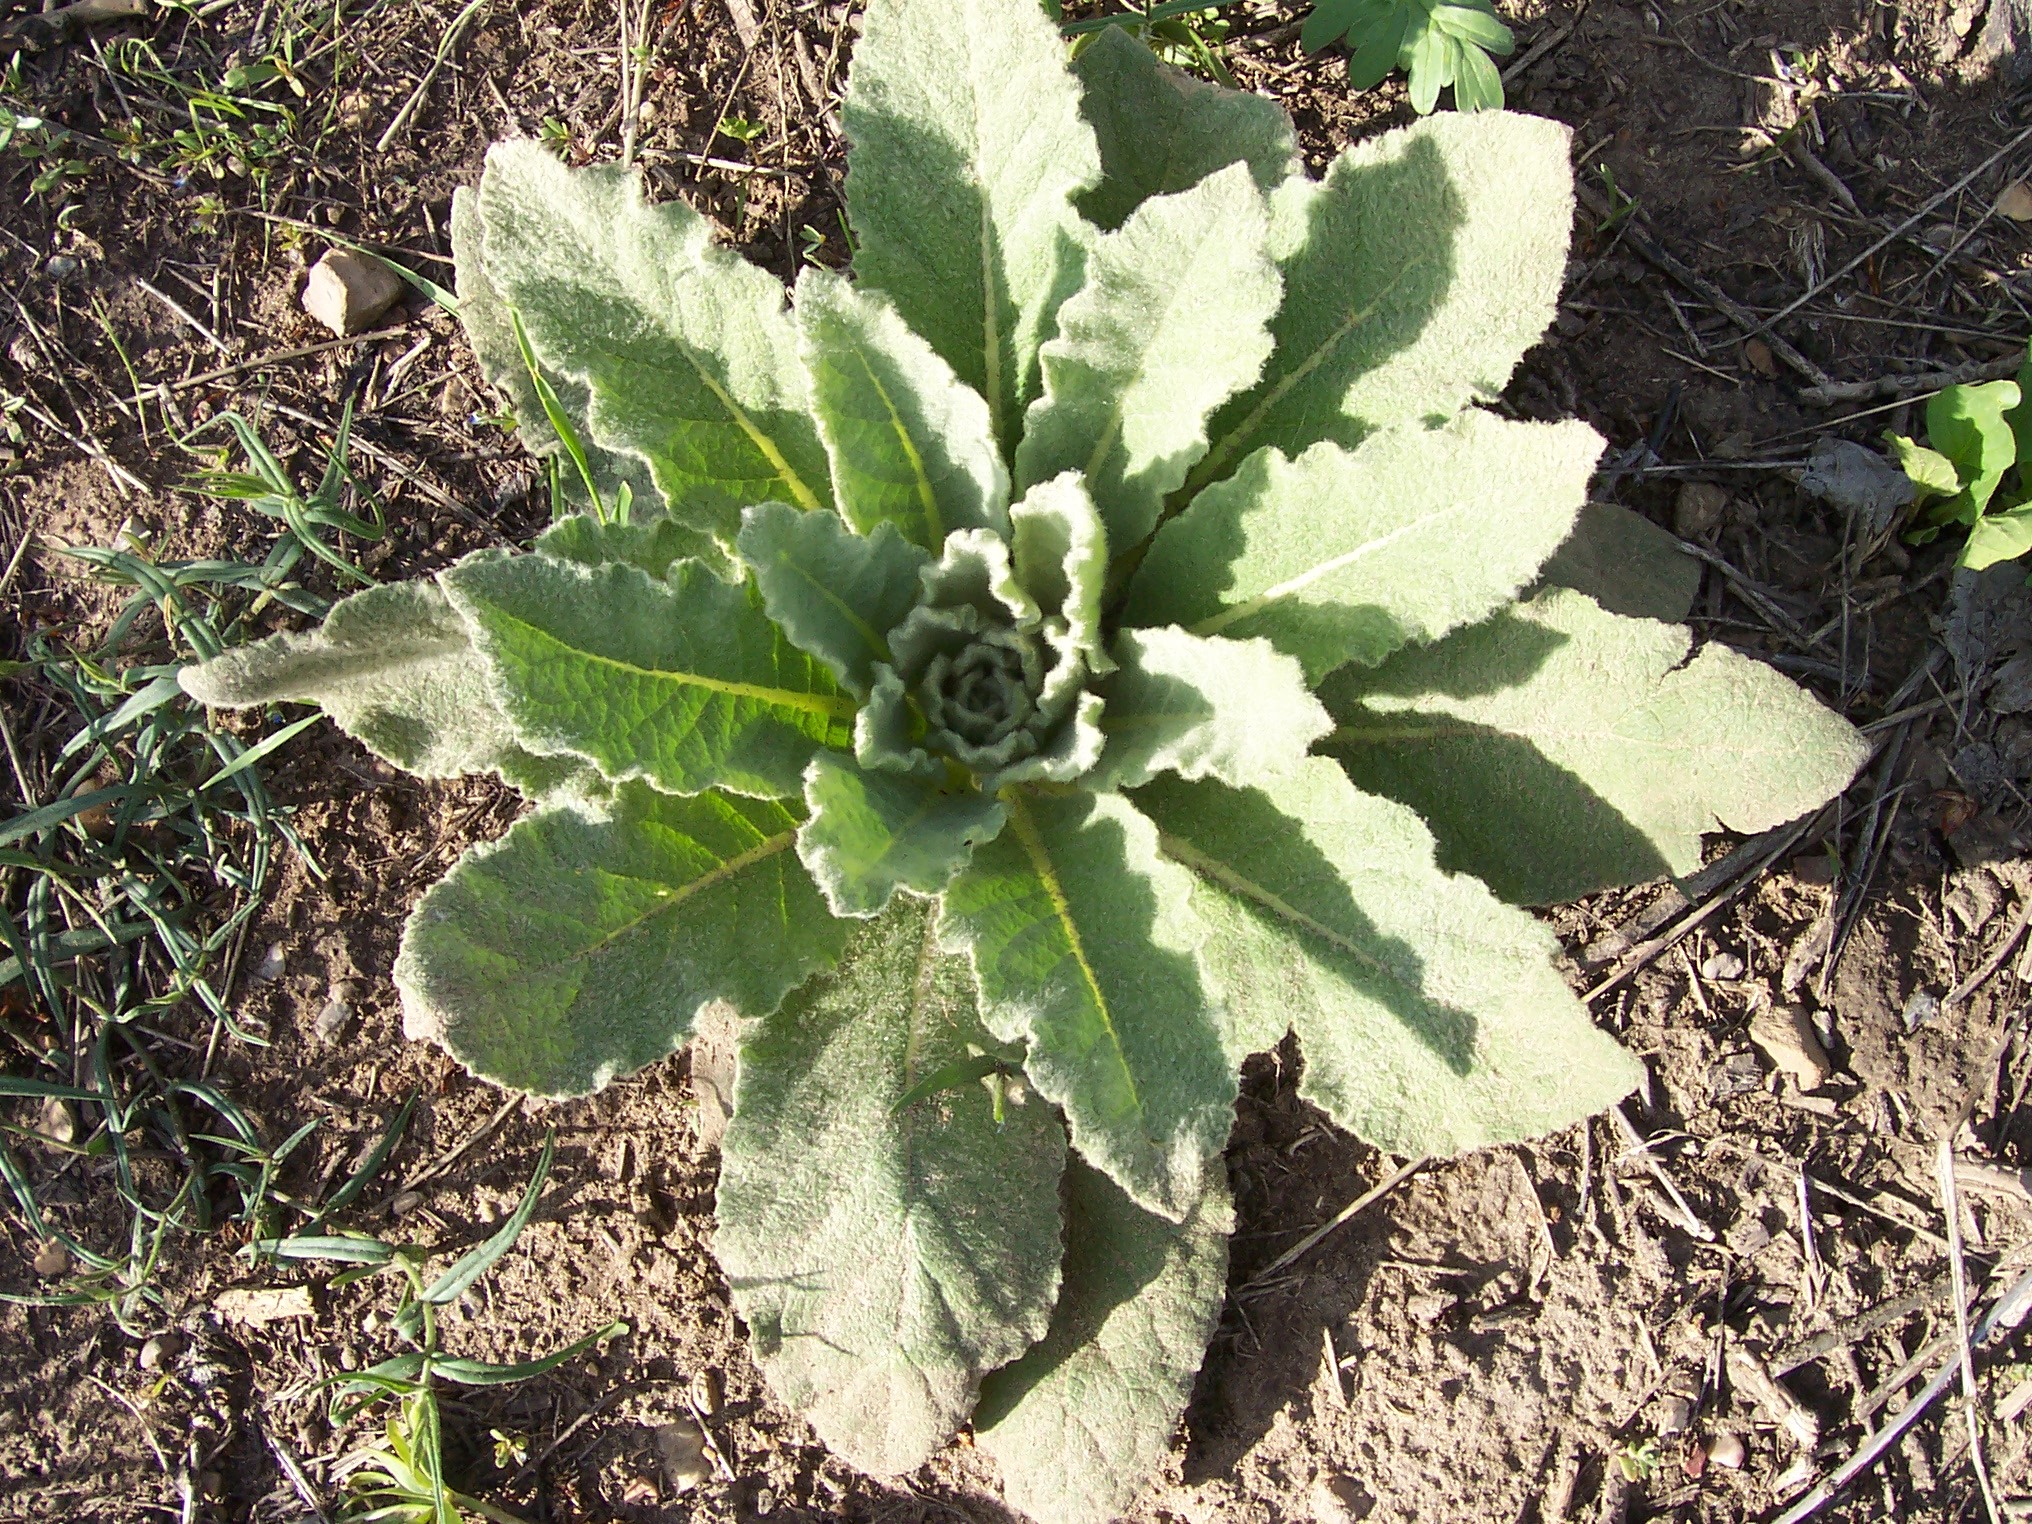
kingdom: Plantae
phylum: Tracheophyta
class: Magnoliopsida
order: Lamiales
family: Scrophulariaceae
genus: Verbascum
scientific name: Verbascum thapsus
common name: Common mullein
